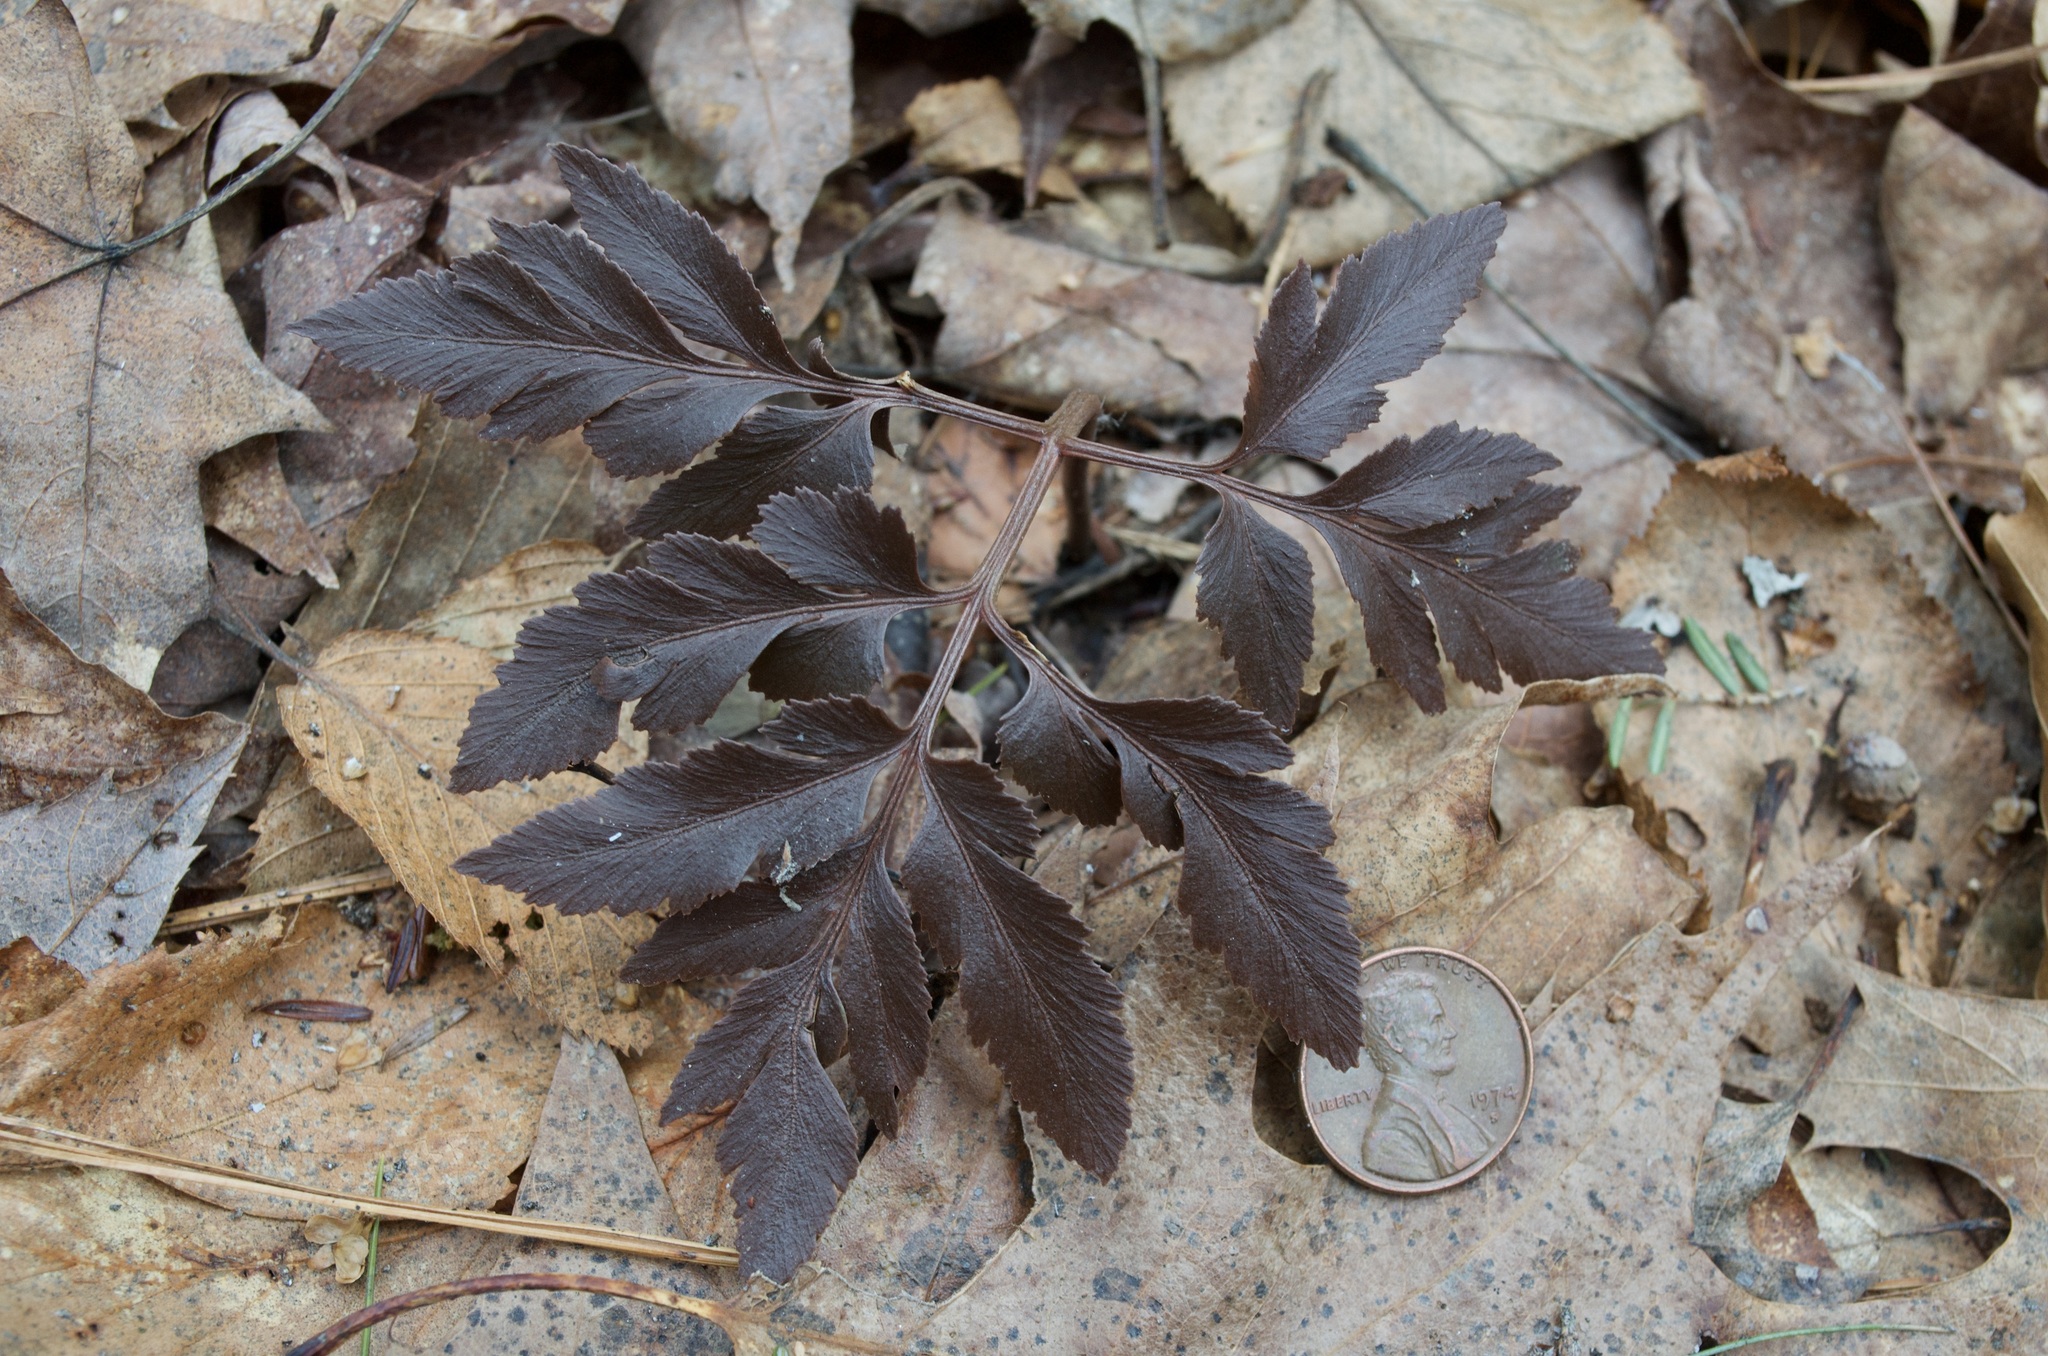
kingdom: Plantae
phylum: Tracheophyta
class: Polypodiopsida
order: Ophioglossales
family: Ophioglossaceae
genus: Sceptridium
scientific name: Sceptridium dissectum
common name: Cut-leaved grapefern
